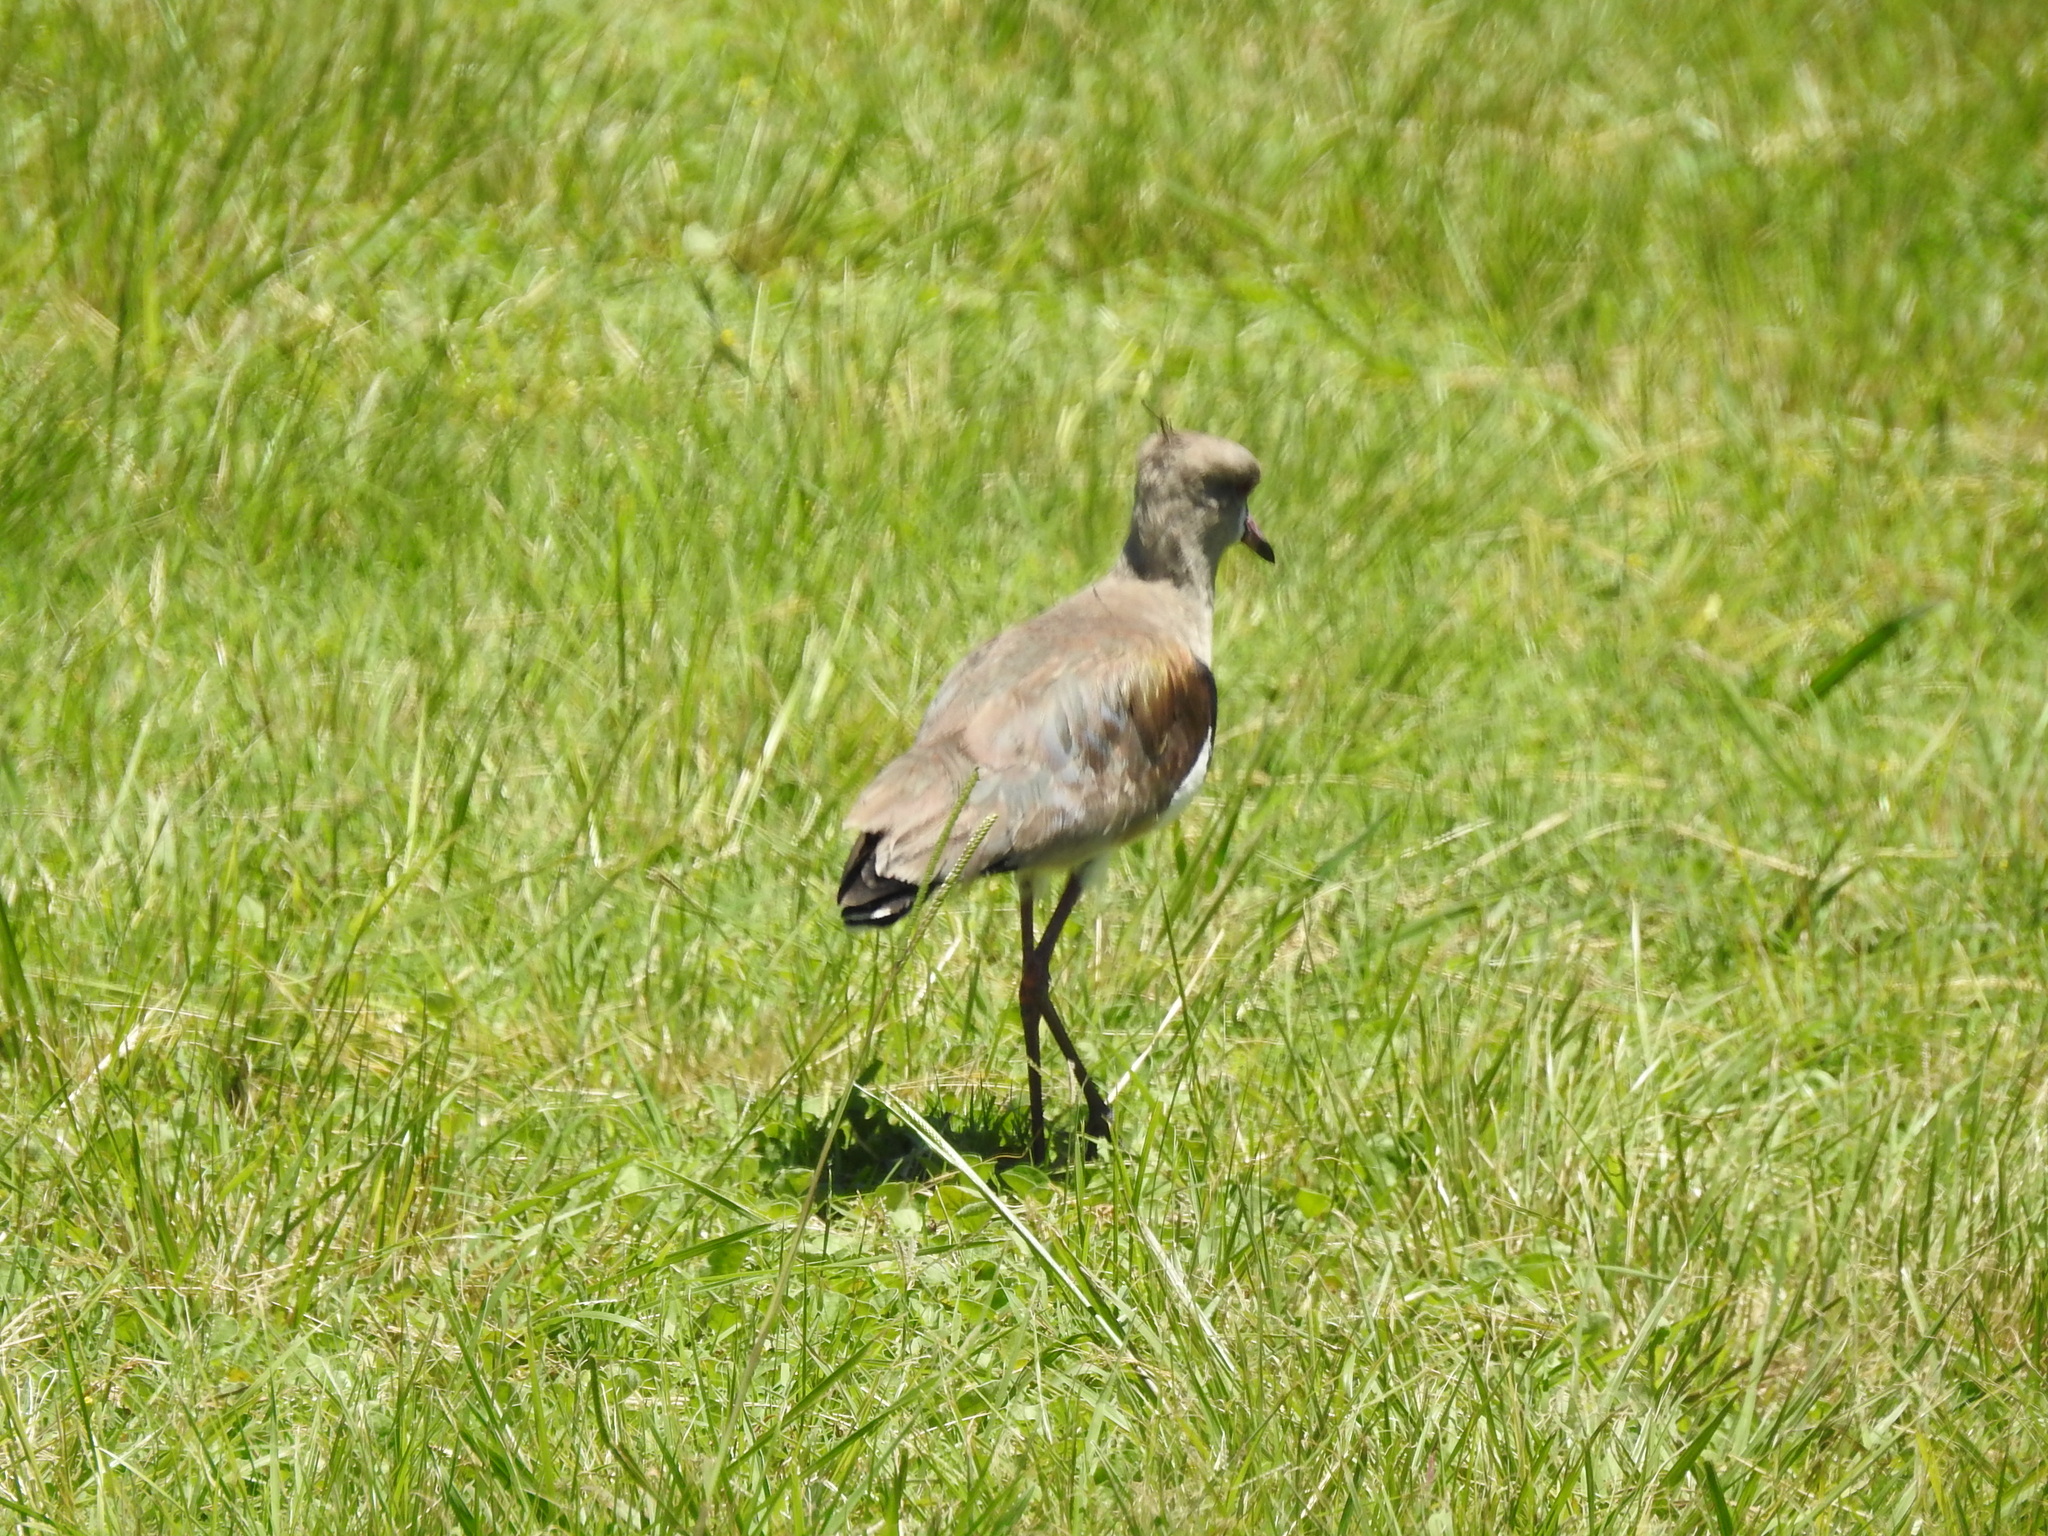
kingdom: Animalia
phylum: Chordata
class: Aves
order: Charadriiformes
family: Charadriidae
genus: Vanellus
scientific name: Vanellus chilensis
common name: Southern lapwing
